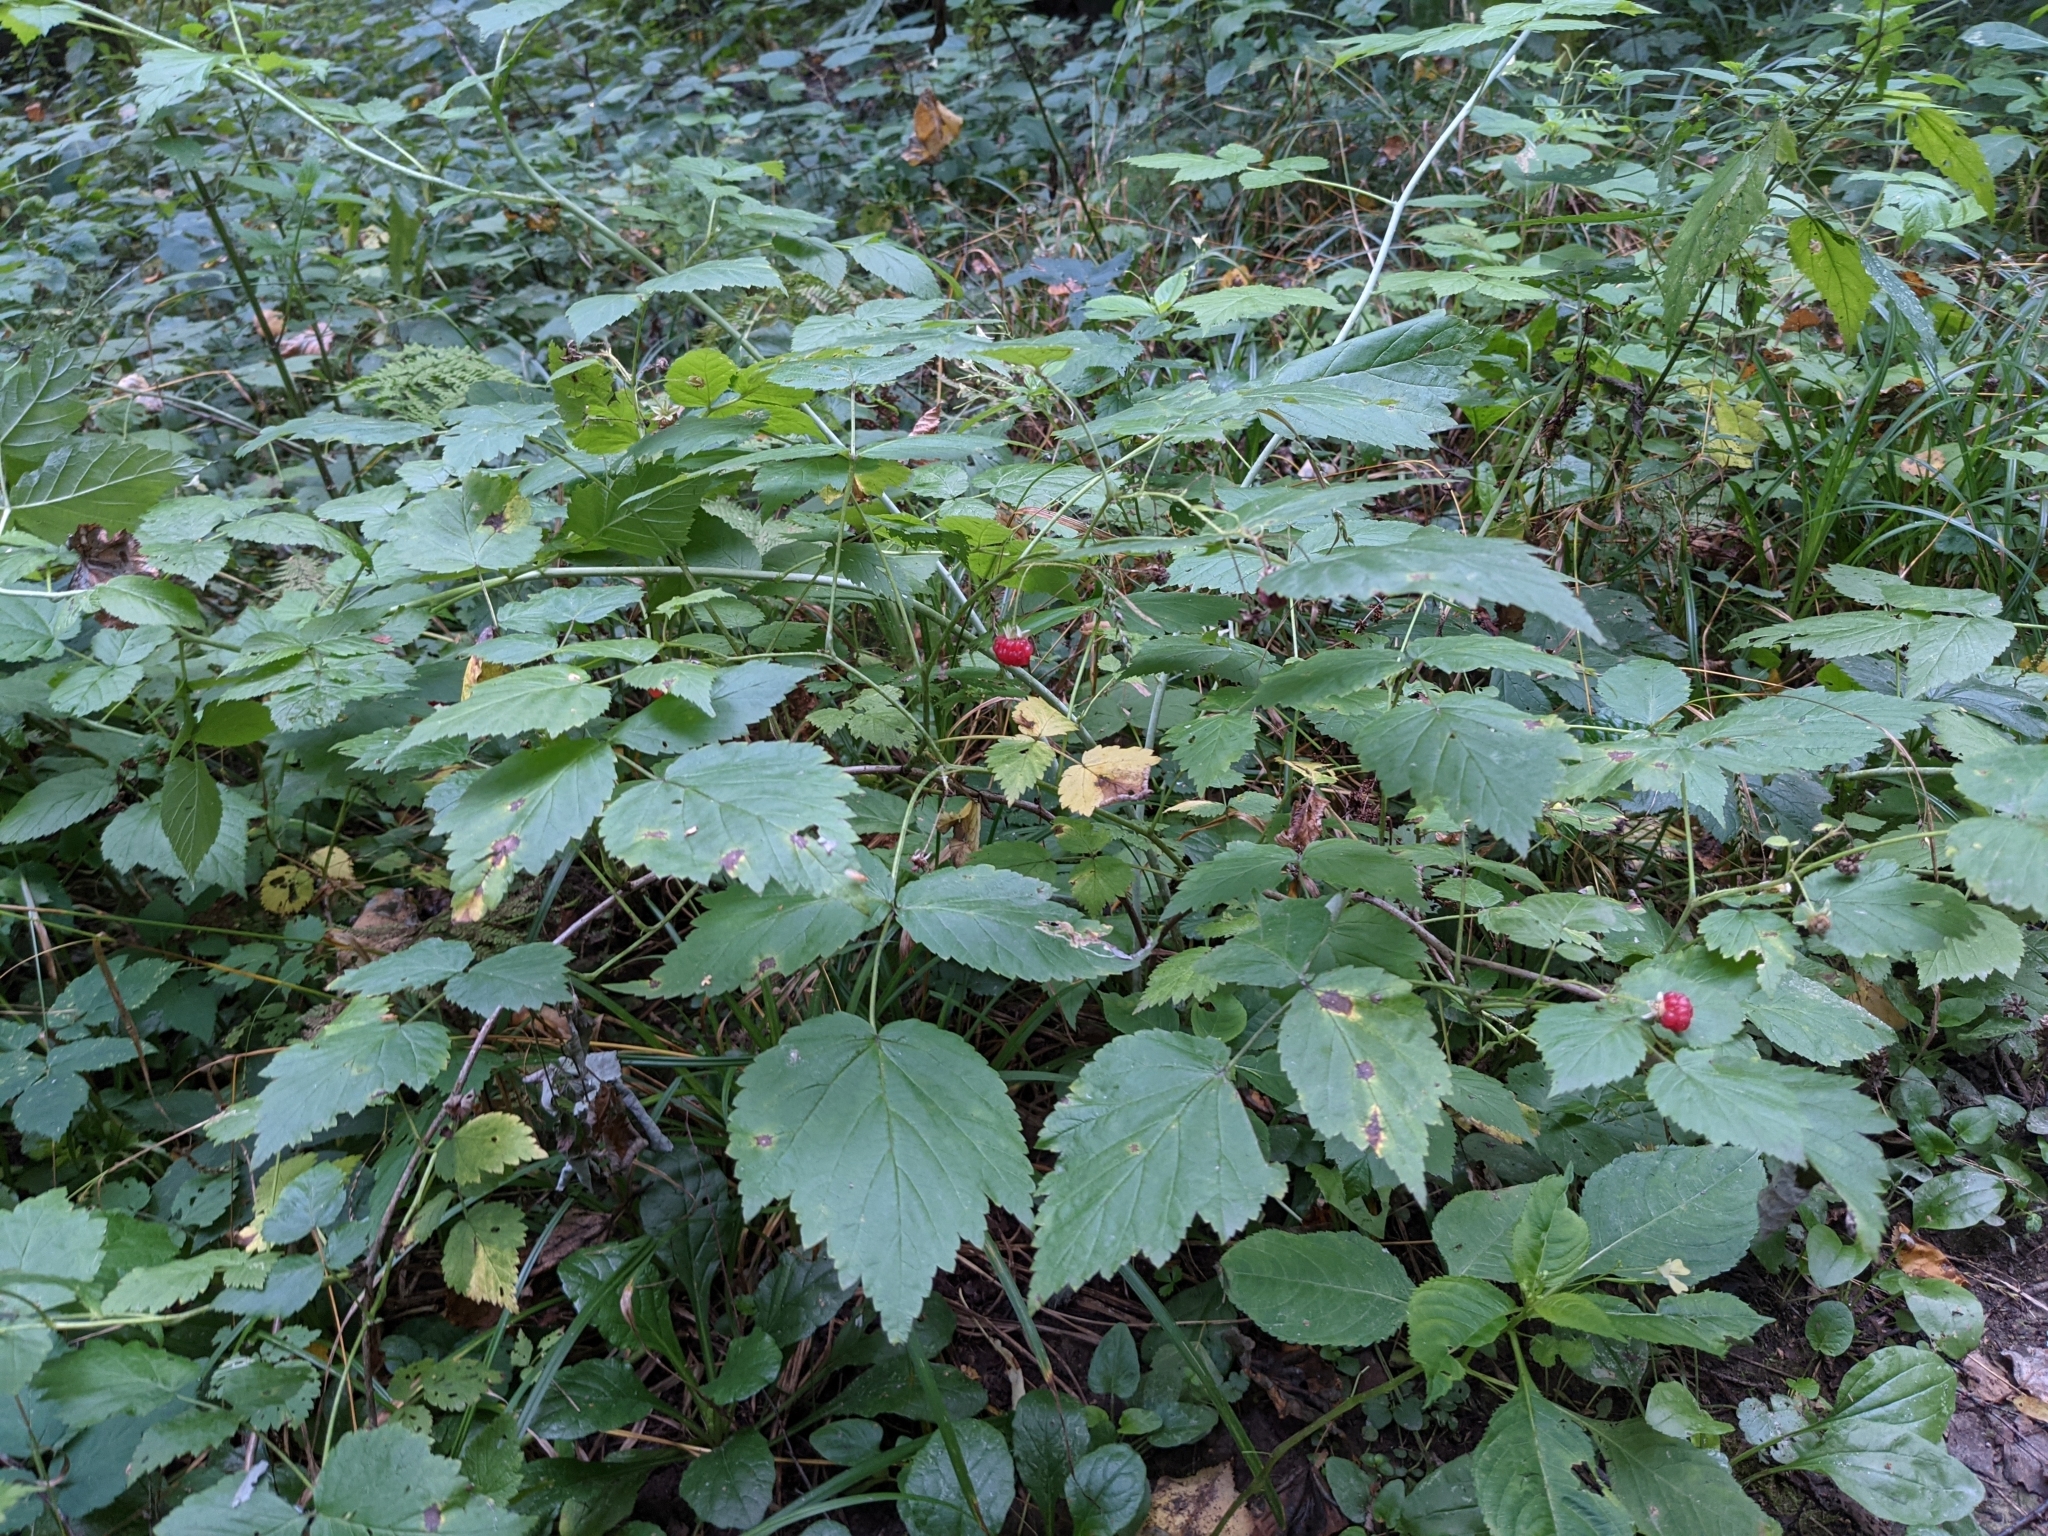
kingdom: Plantae
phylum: Tracheophyta
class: Magnoliopsida
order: Rosales
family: Rosaceae
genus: Rubus
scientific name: Rubus idaeus
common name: Raspberry
